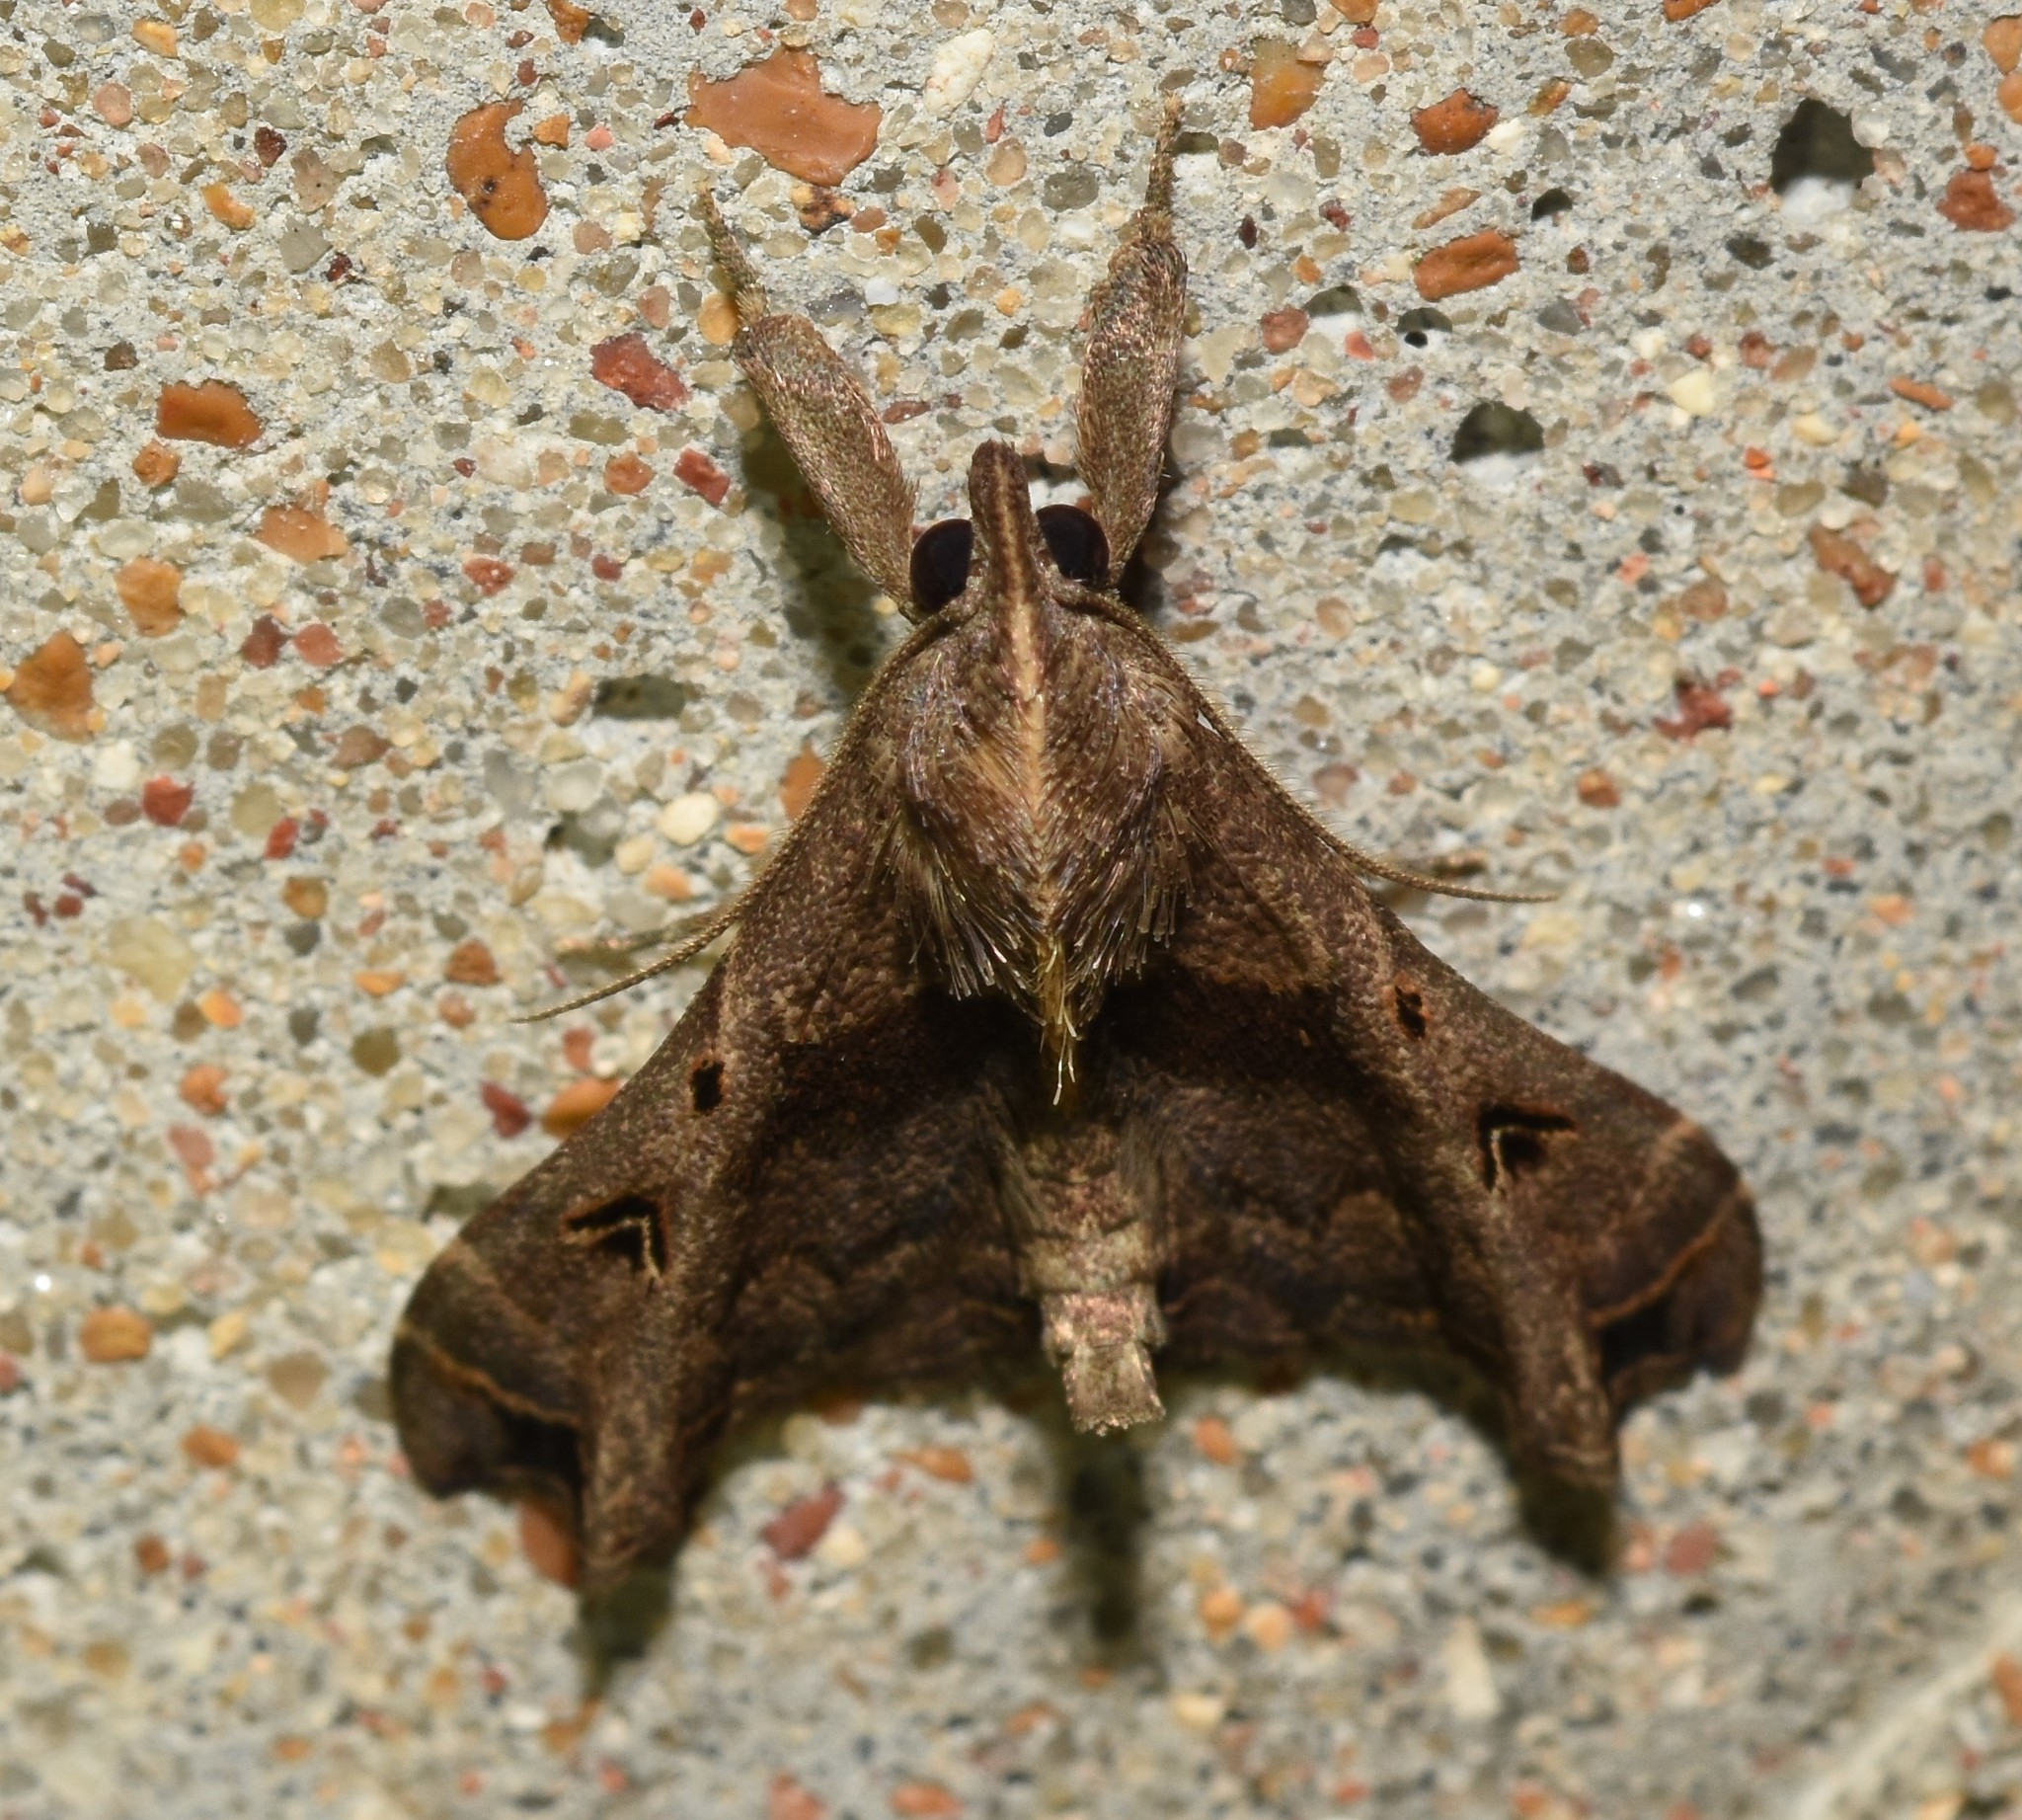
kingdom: Animalia
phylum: Arthropoda
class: Insecta
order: Lepidoptera
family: Erebidae
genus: Palthis
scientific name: Palthis asopialis
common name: Faint-spotted palthis moth
